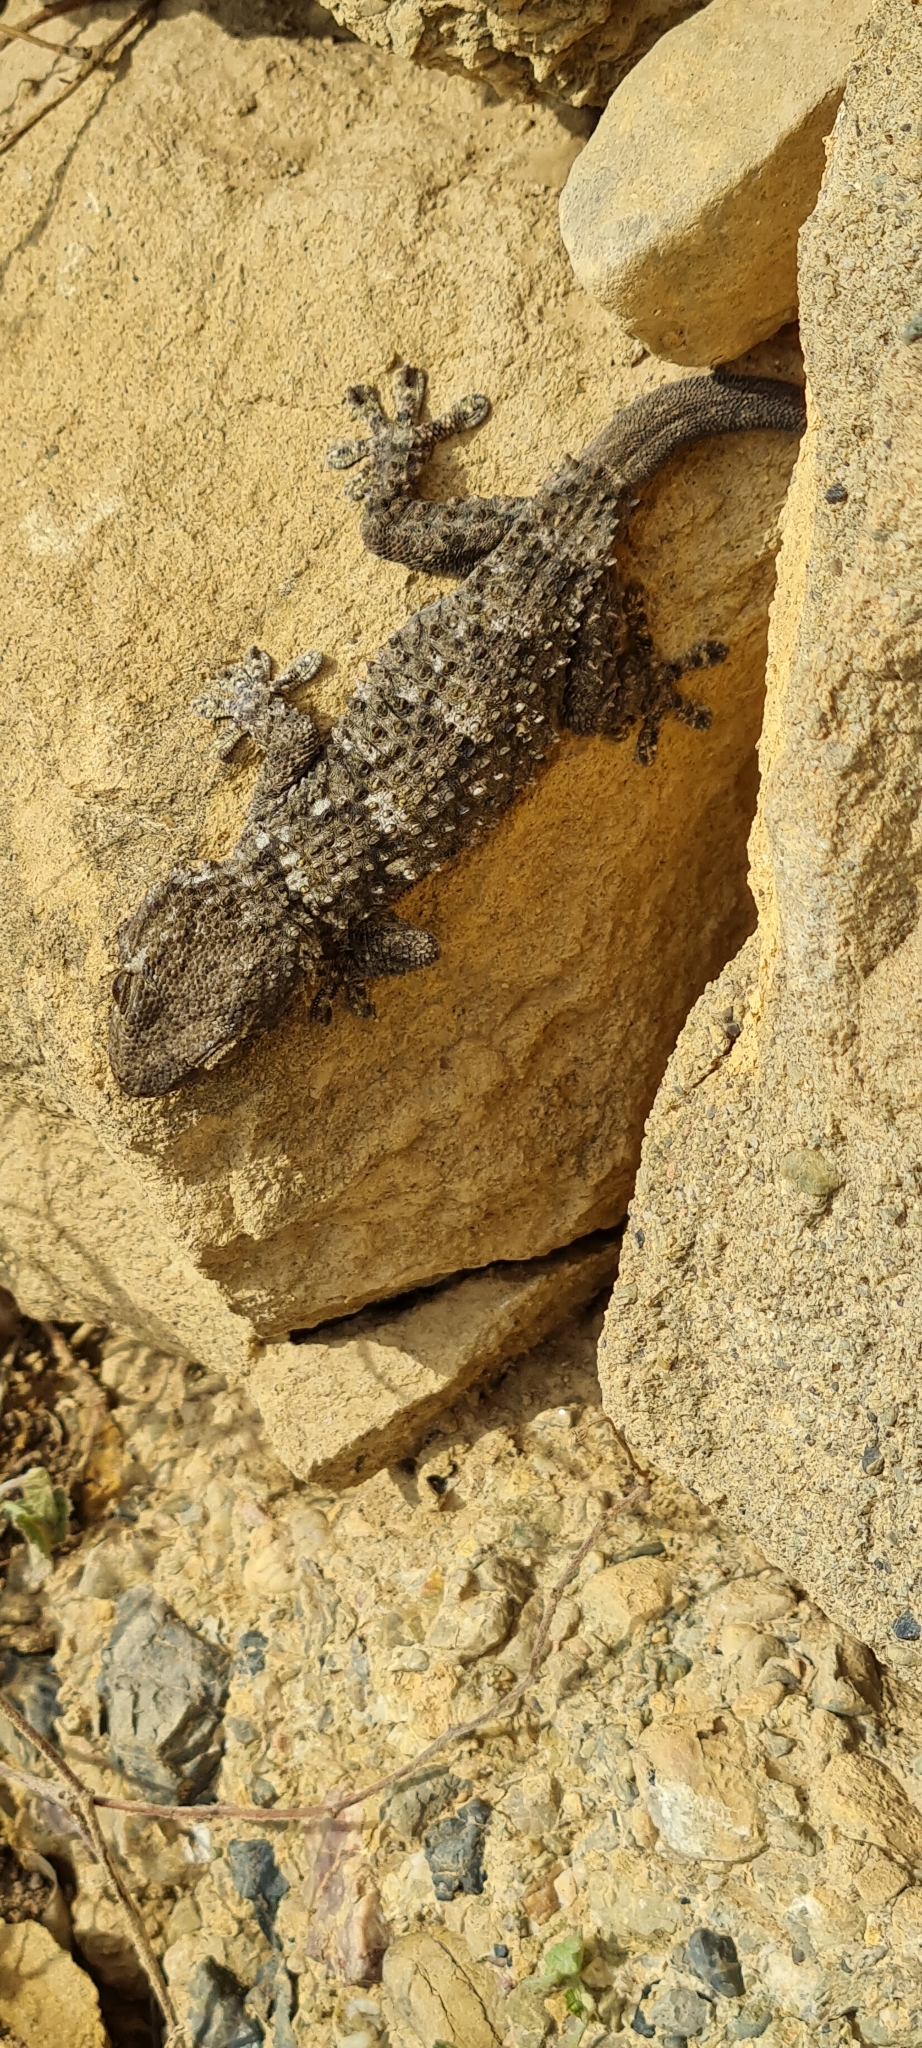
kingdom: Animalia
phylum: Chordata
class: Squamata
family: Phyllodactylidae
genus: Tarentola
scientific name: Tarentola mauritanica
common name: Moorish gecko
